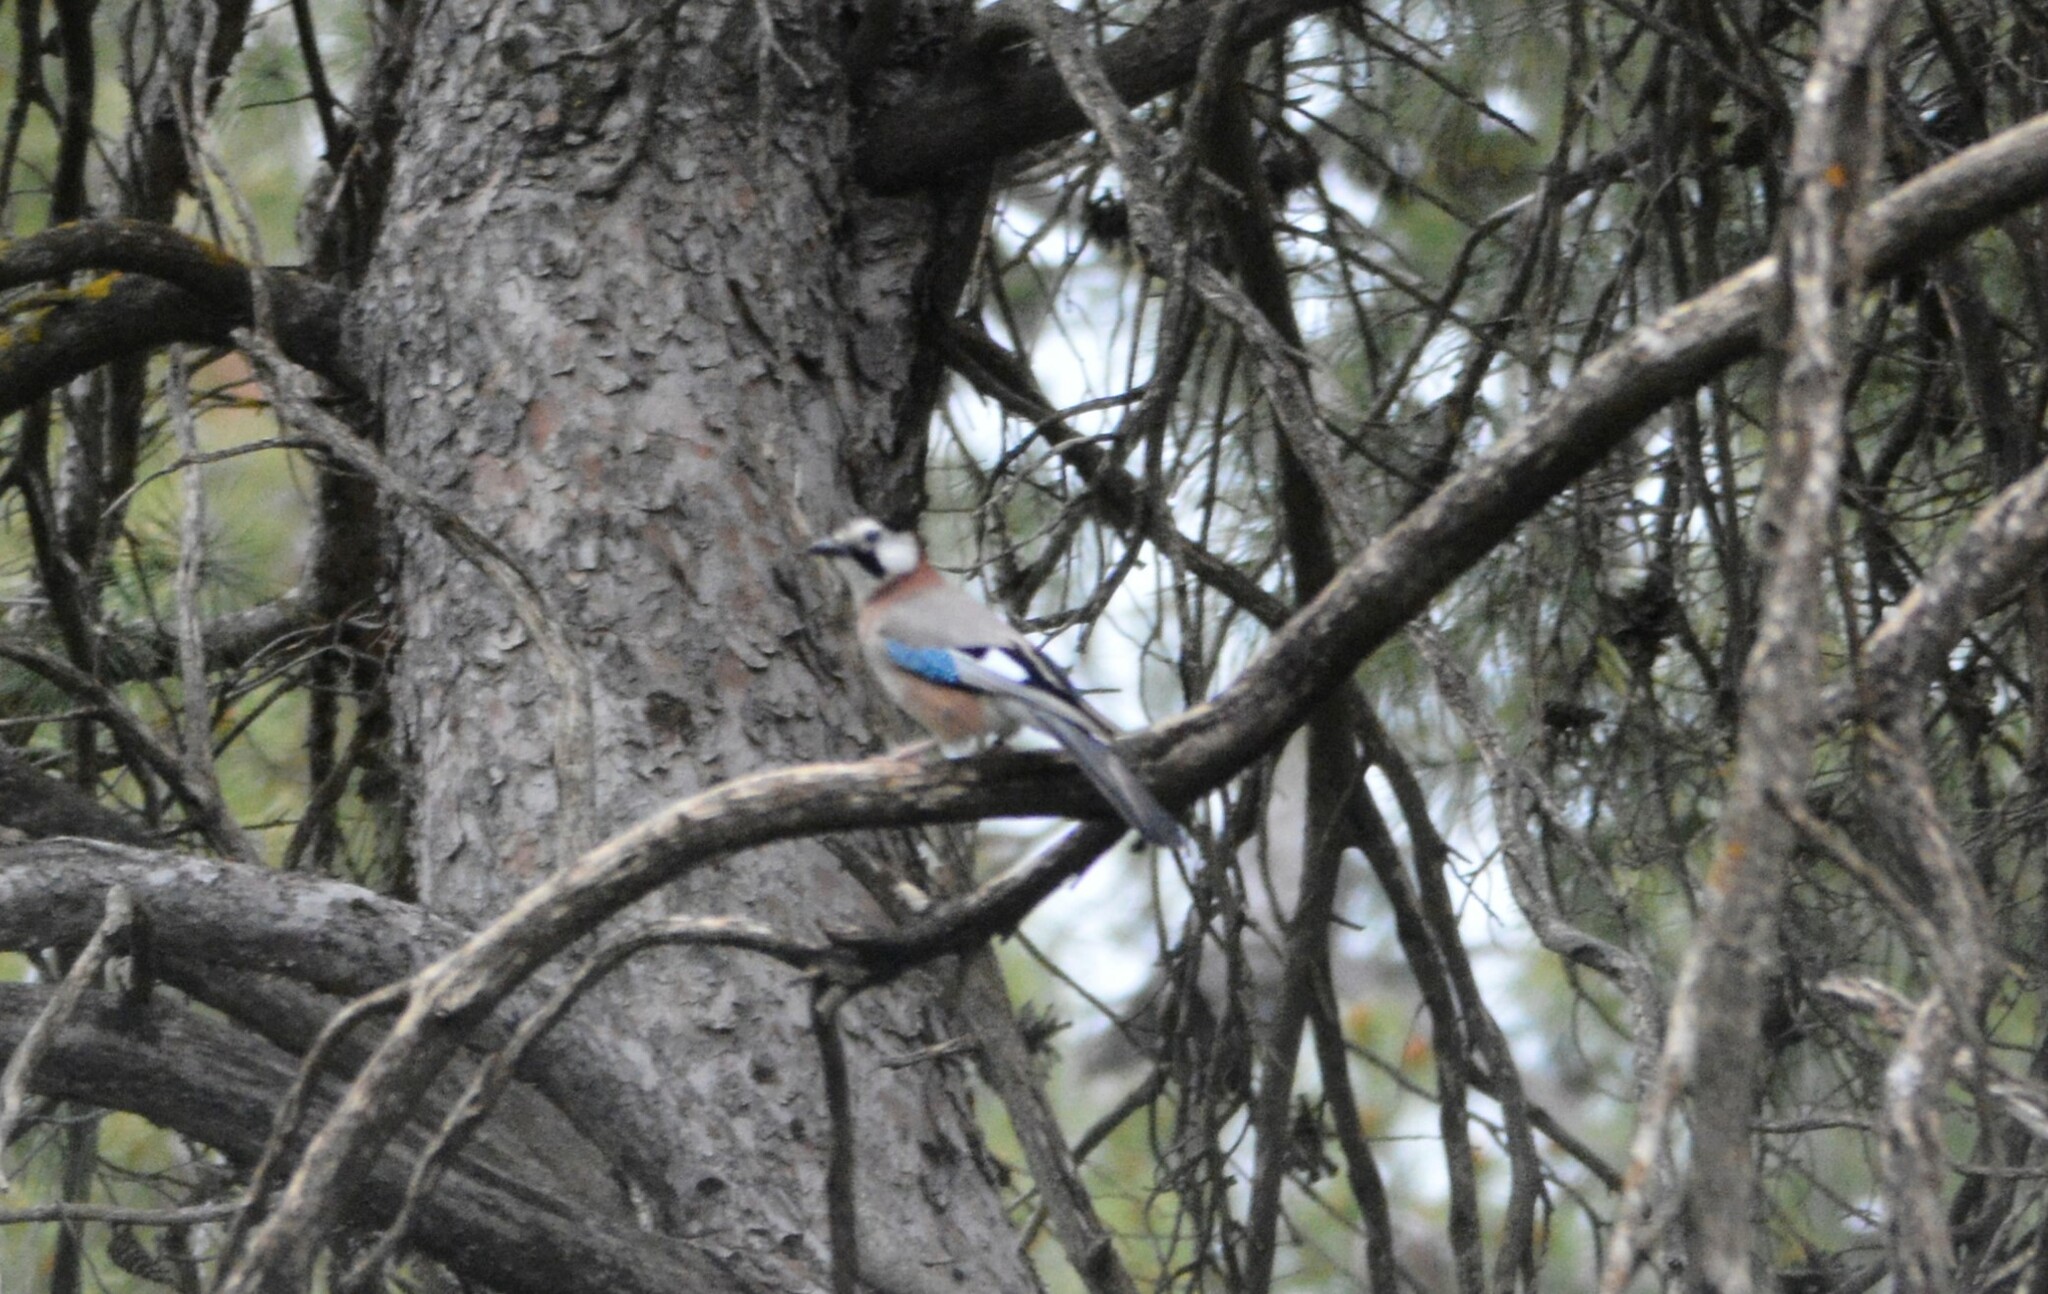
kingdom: Animalia
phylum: Chordata
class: Aves
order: Passeriformes
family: Corvidae
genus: Garrulus
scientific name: Garrulus glandarius
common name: Eurasian jay
